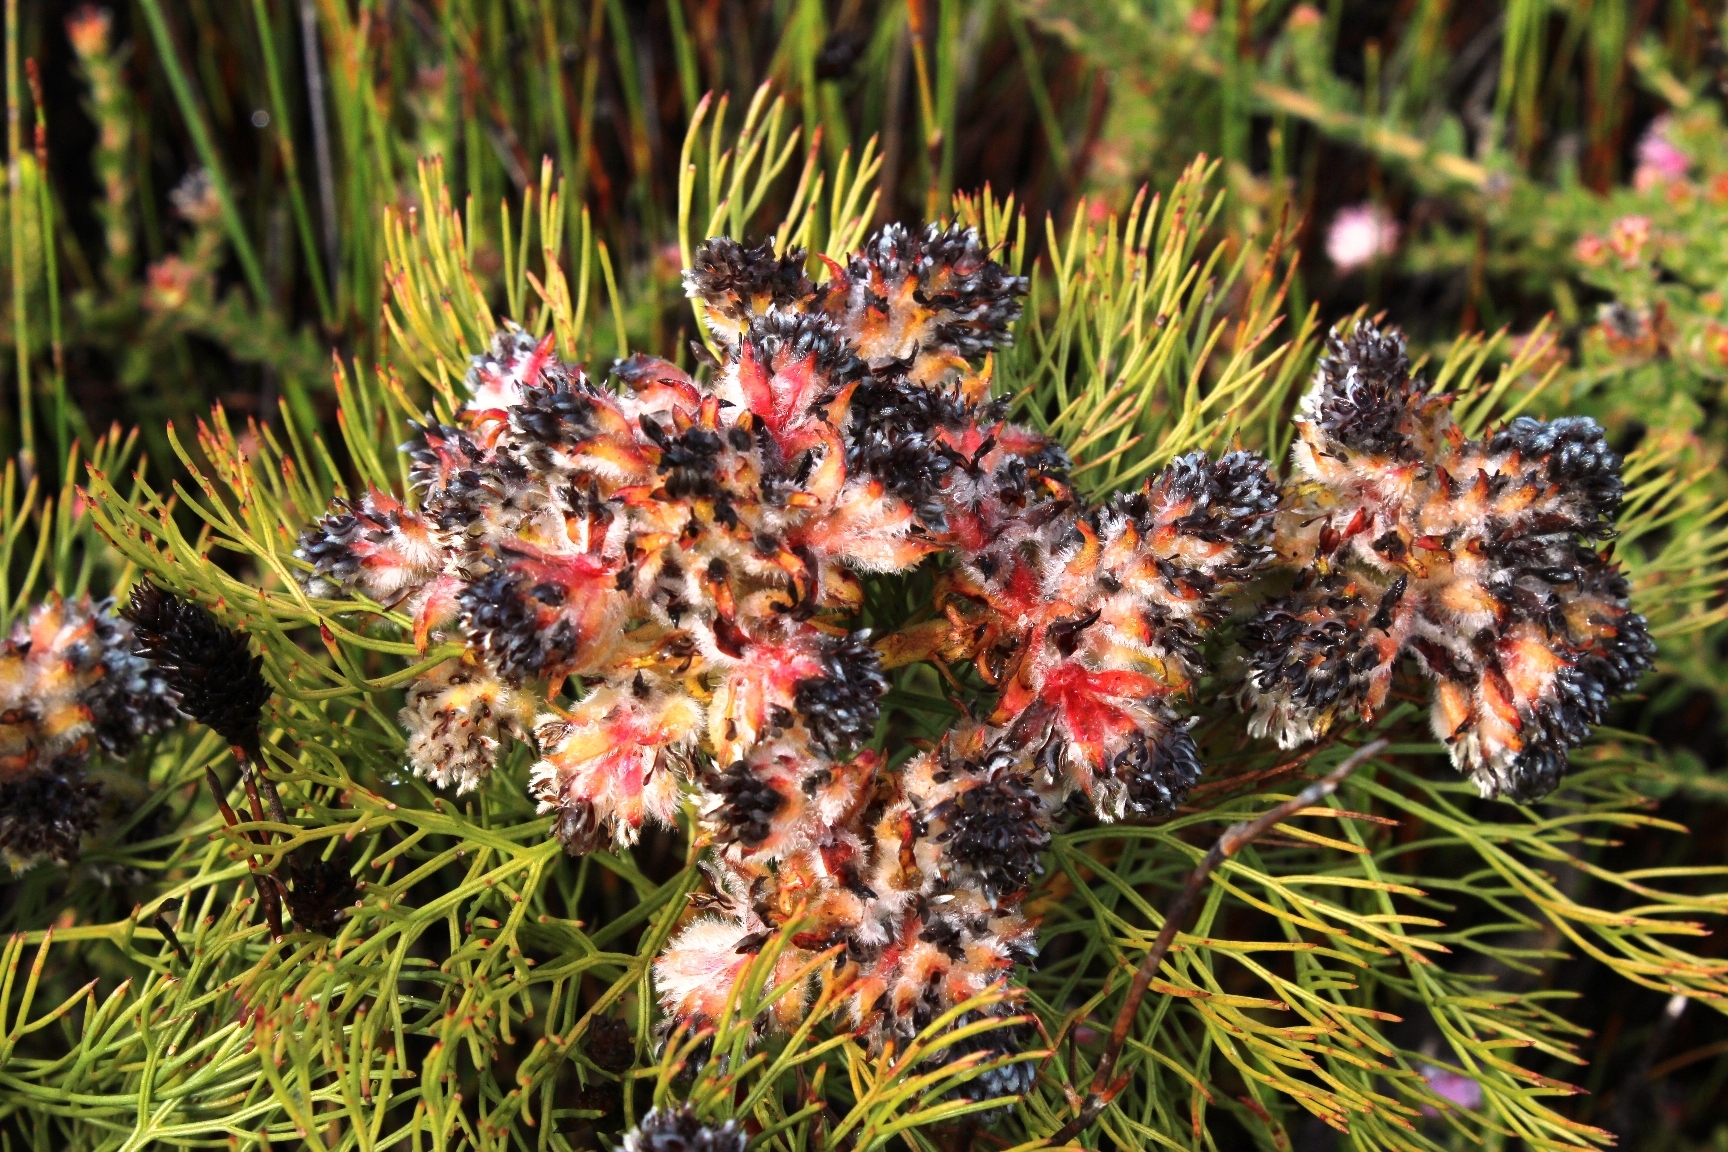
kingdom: Plantae
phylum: Tracheophyta
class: Magnoliopsida
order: Proteales
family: Proteaceae
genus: Serruria
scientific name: Serruria glomerata
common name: Cluster spiderhead
